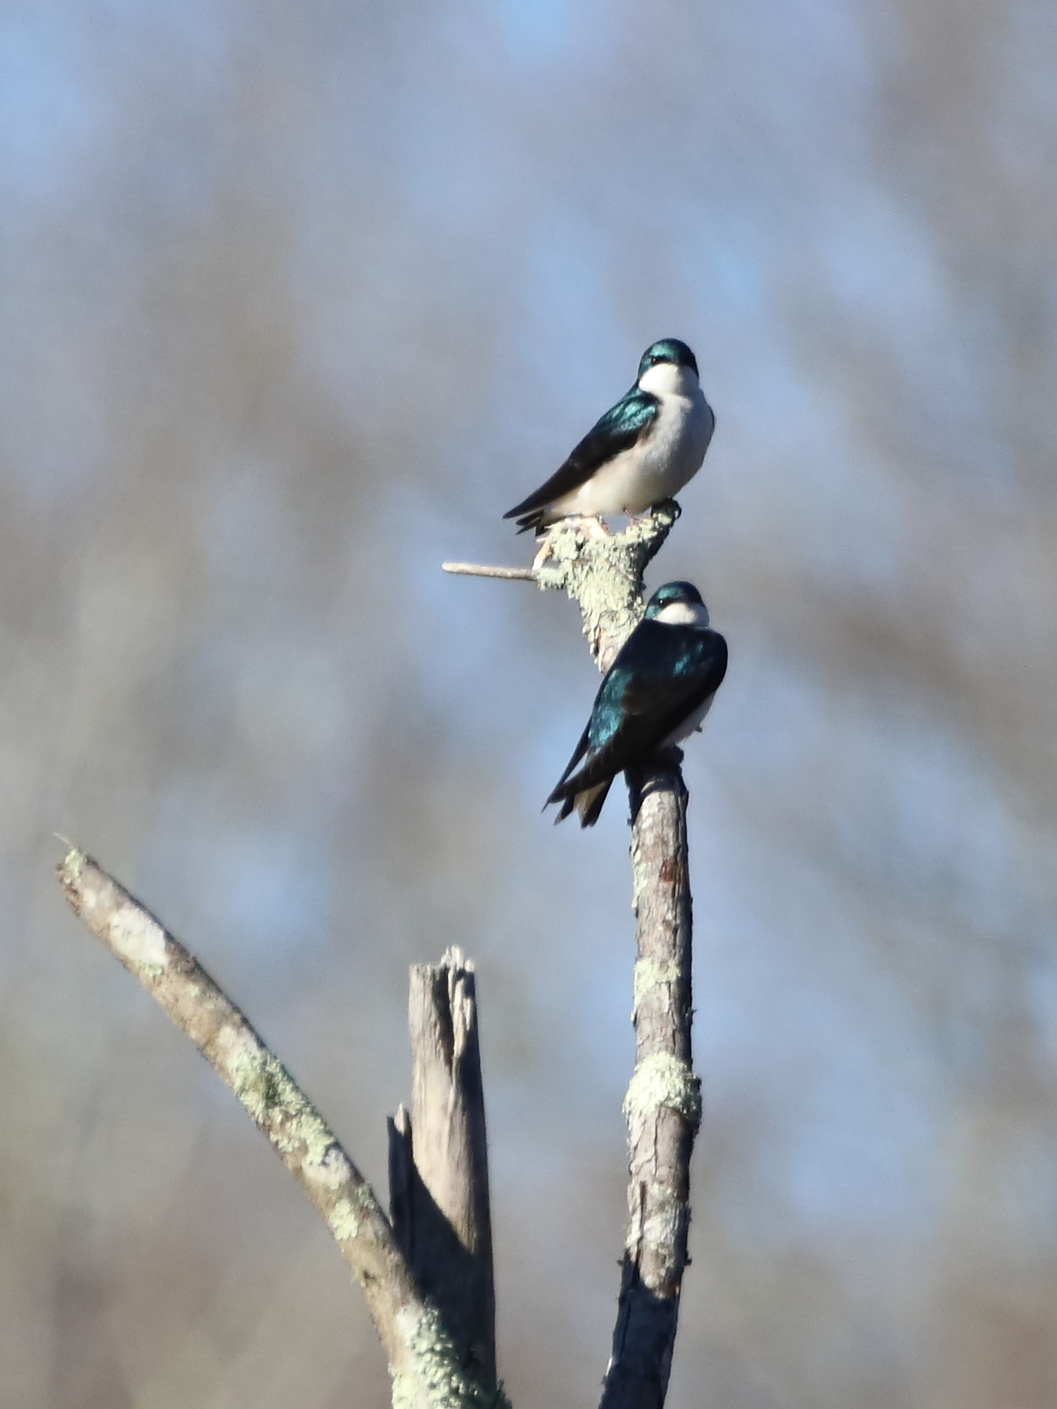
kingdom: Animalia
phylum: Chordata
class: Aves
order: Passeriformes
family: Hirundinidae
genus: Tachycineta
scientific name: Tachycineta bicolor
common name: Tree swallow
